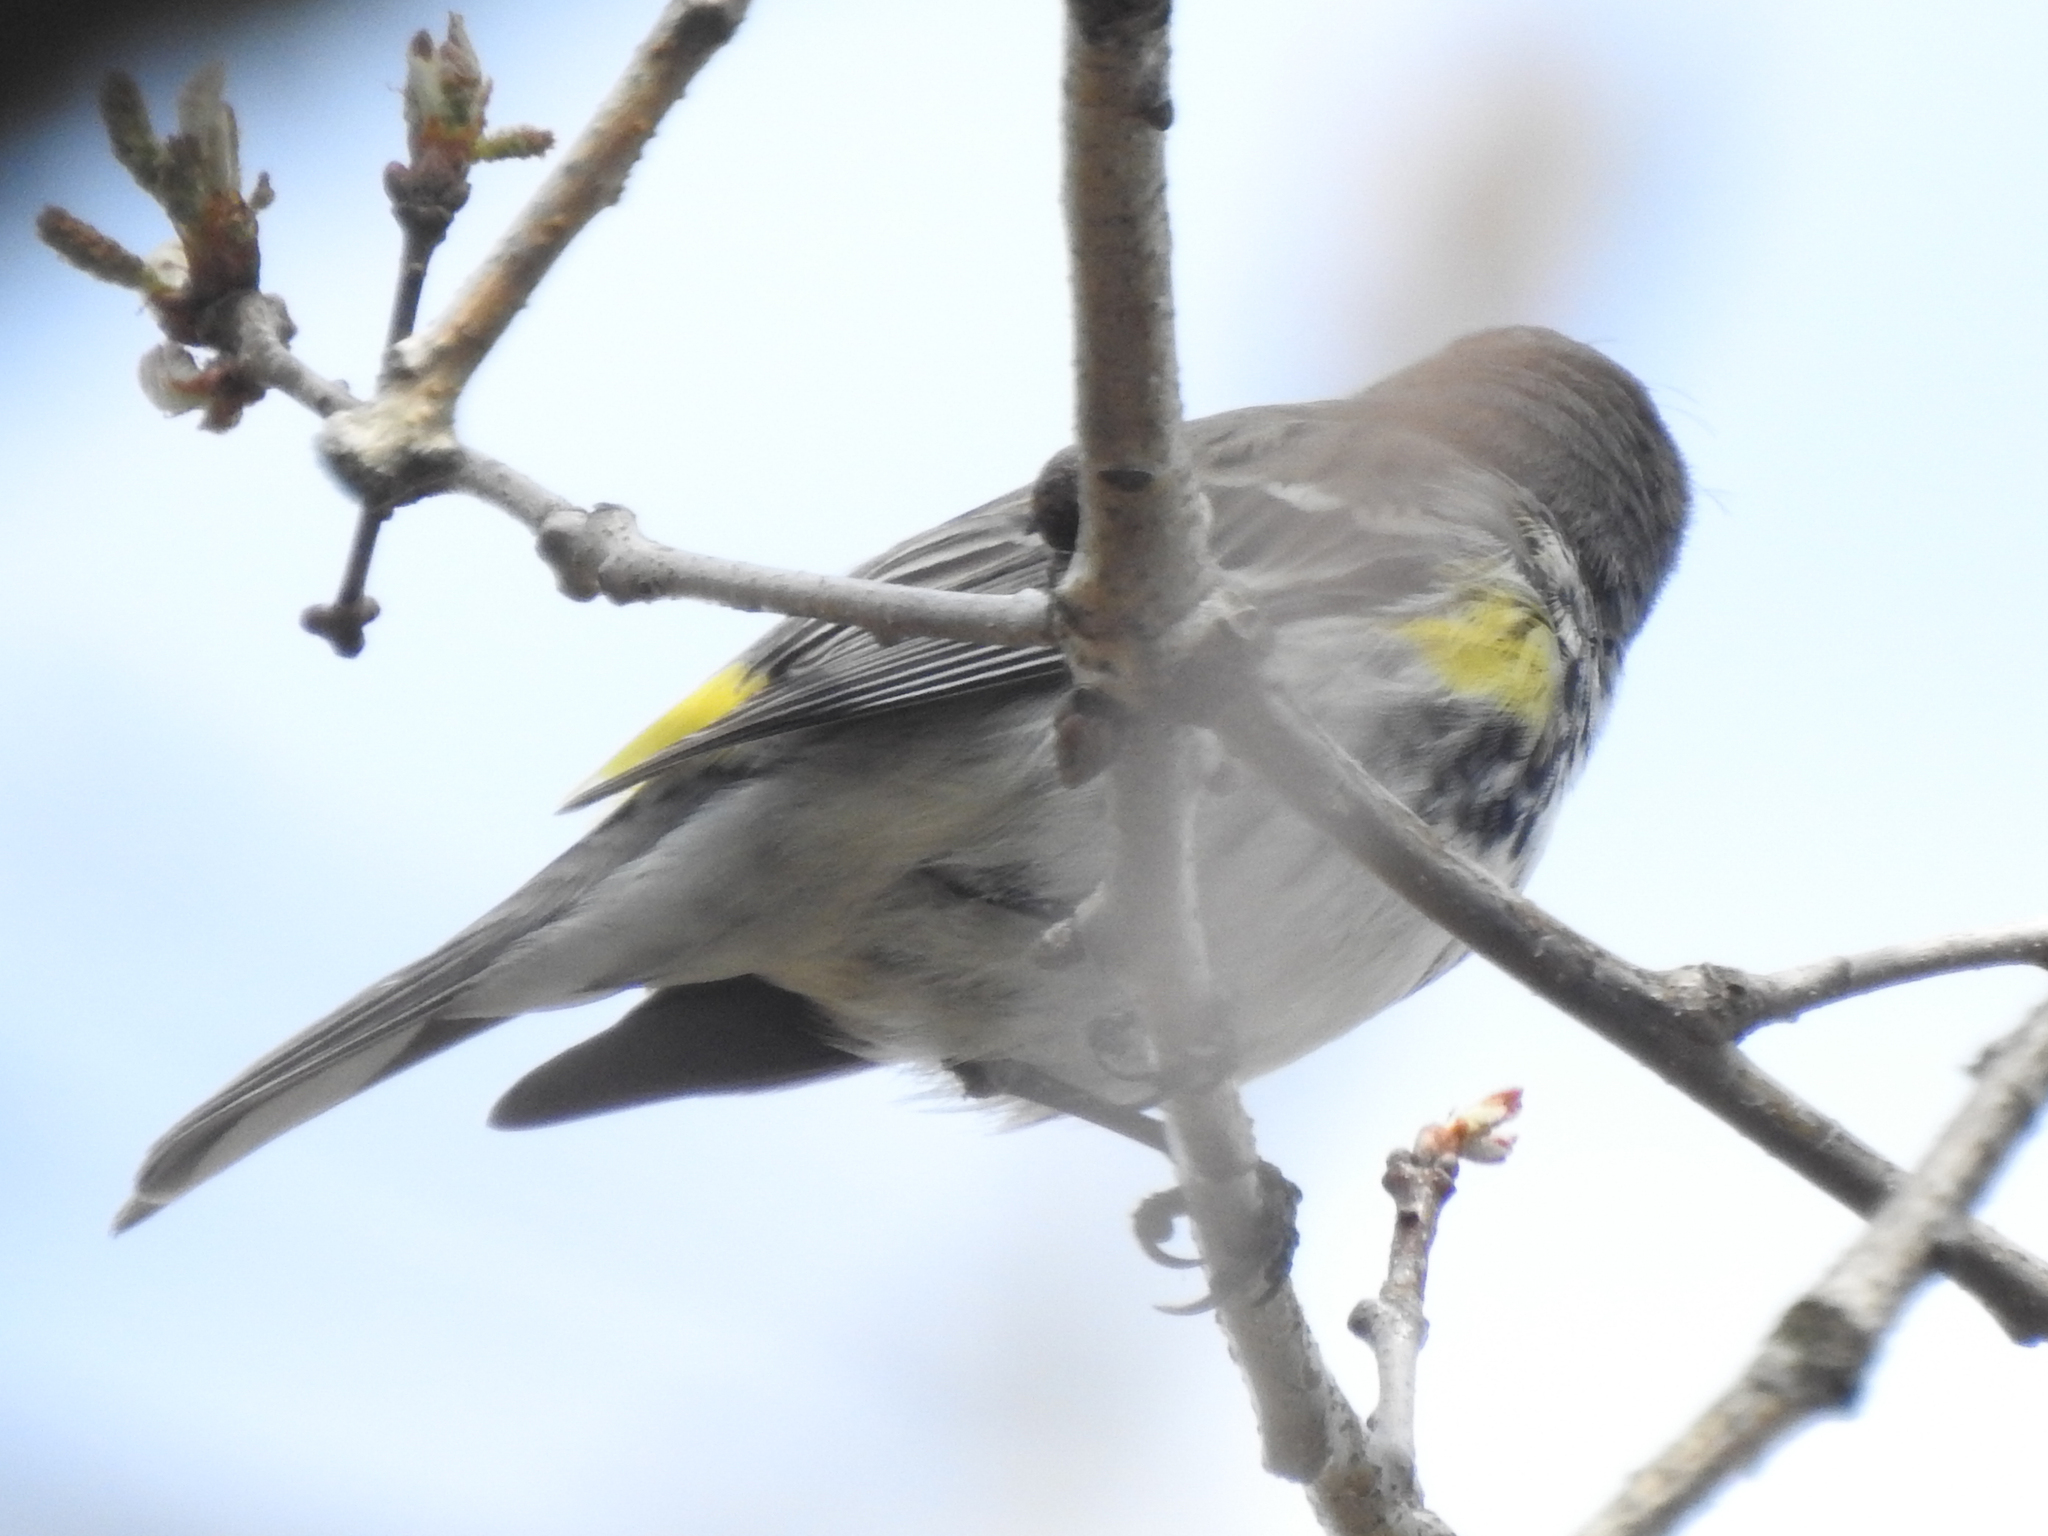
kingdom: Animalia
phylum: Chordata
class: Aves
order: Passeriformes
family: Parulidae
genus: Setophaga
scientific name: Setophaga coronata
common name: Myrtle warbler
